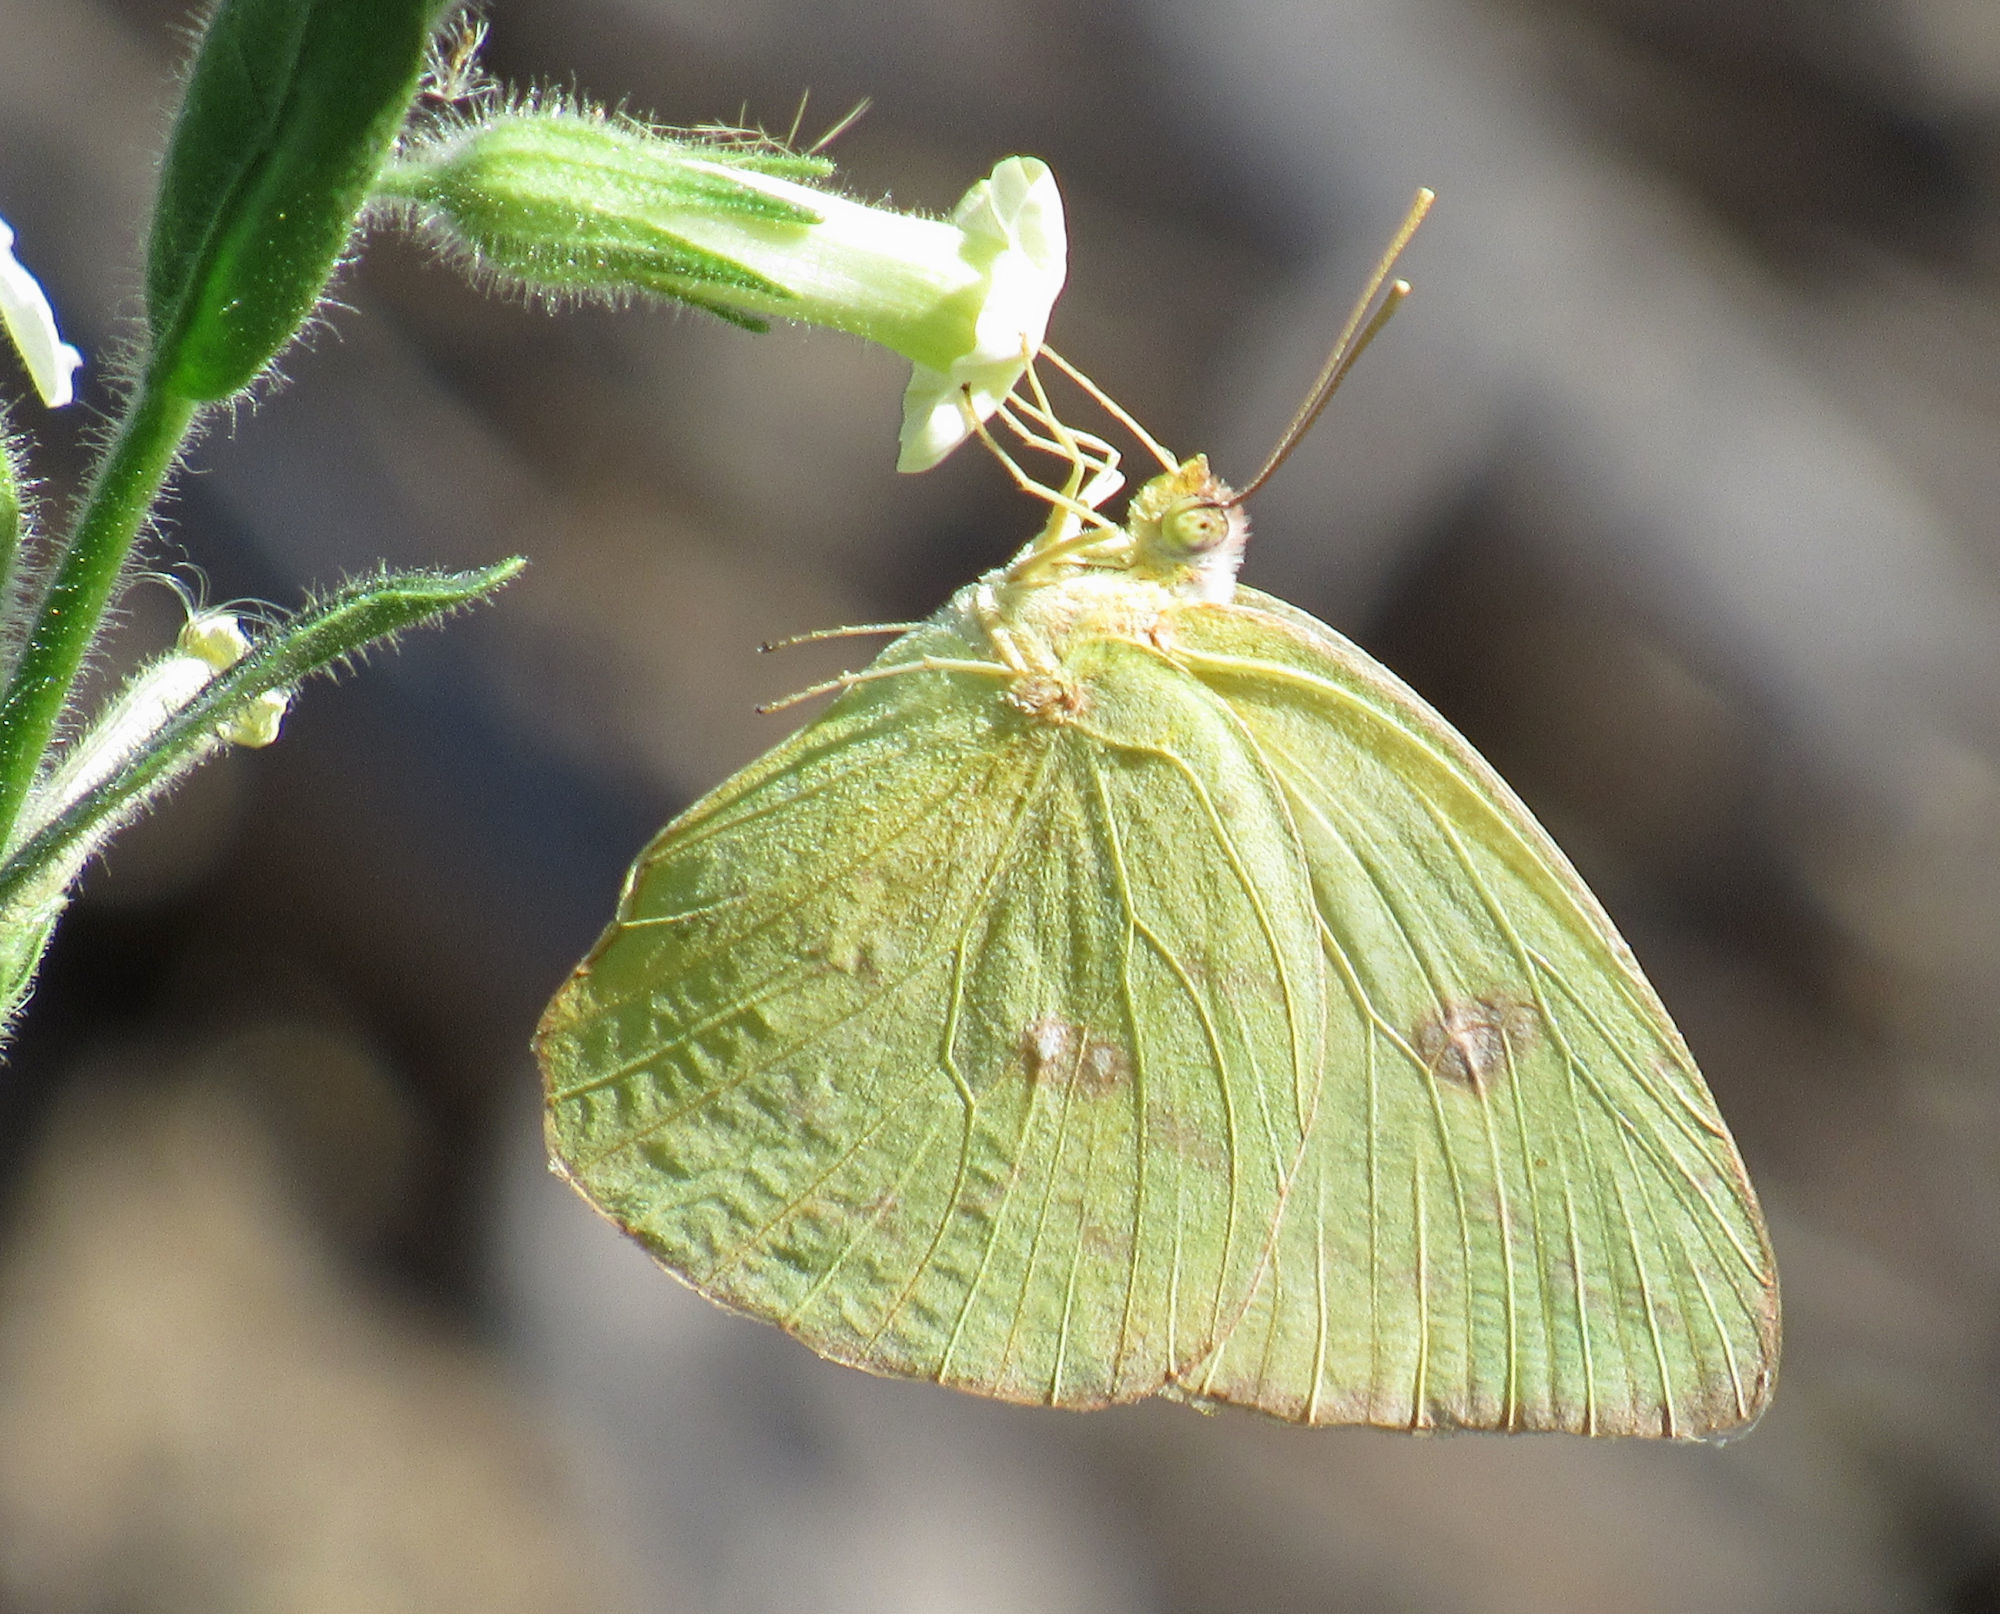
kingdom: Animalia
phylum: Arthropoda
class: Insecta
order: Lepidoptera
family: Pieridae
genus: Phoebis
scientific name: Phoebis sennae
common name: Cloudless sulphur
